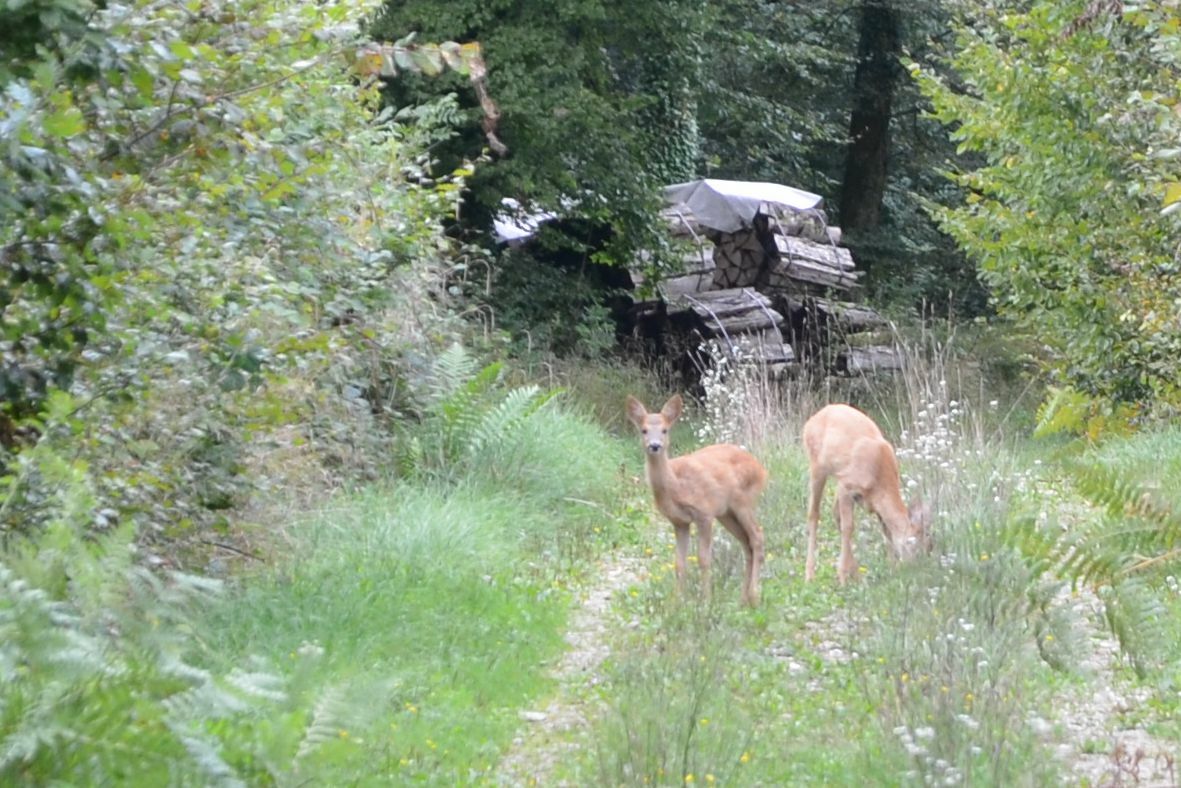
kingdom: Animalia
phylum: Chordata
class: Mammalia
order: Artiodactyla
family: Cervidae
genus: Capreolus
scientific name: Capreolus capreolus
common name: Western roe deer
